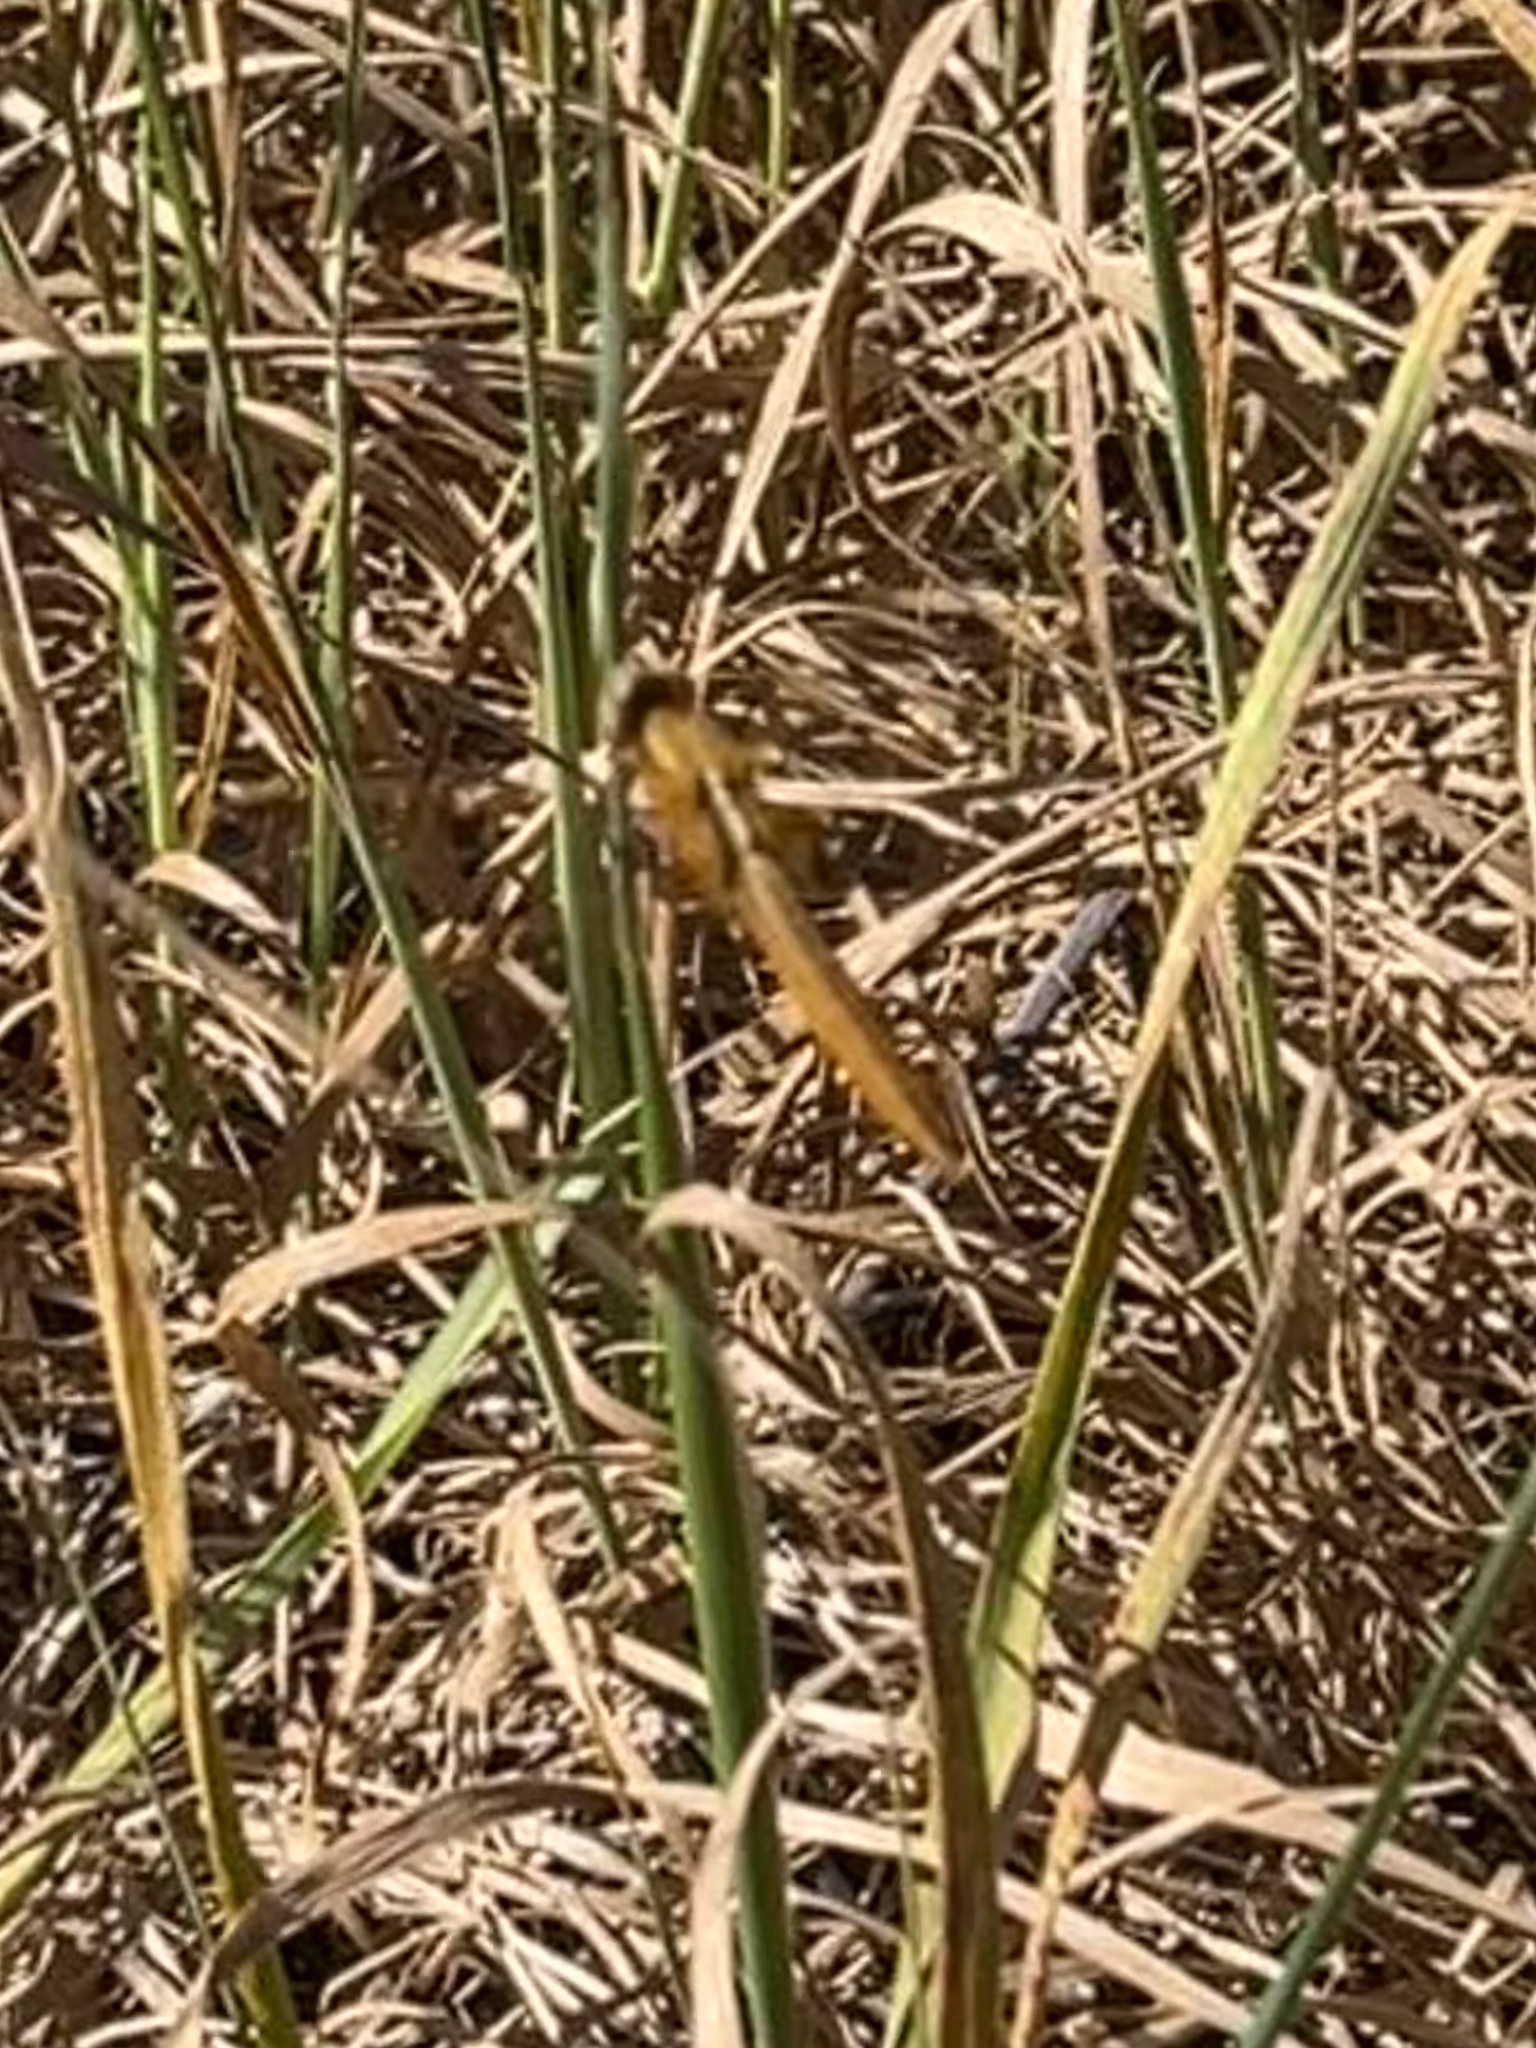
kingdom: Animalia
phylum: Arthropoda
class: Insecta
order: Odonata
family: Libellulidae
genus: Crocothemis
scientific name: Crocothemis erythraea
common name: Scarlet dragonfly
